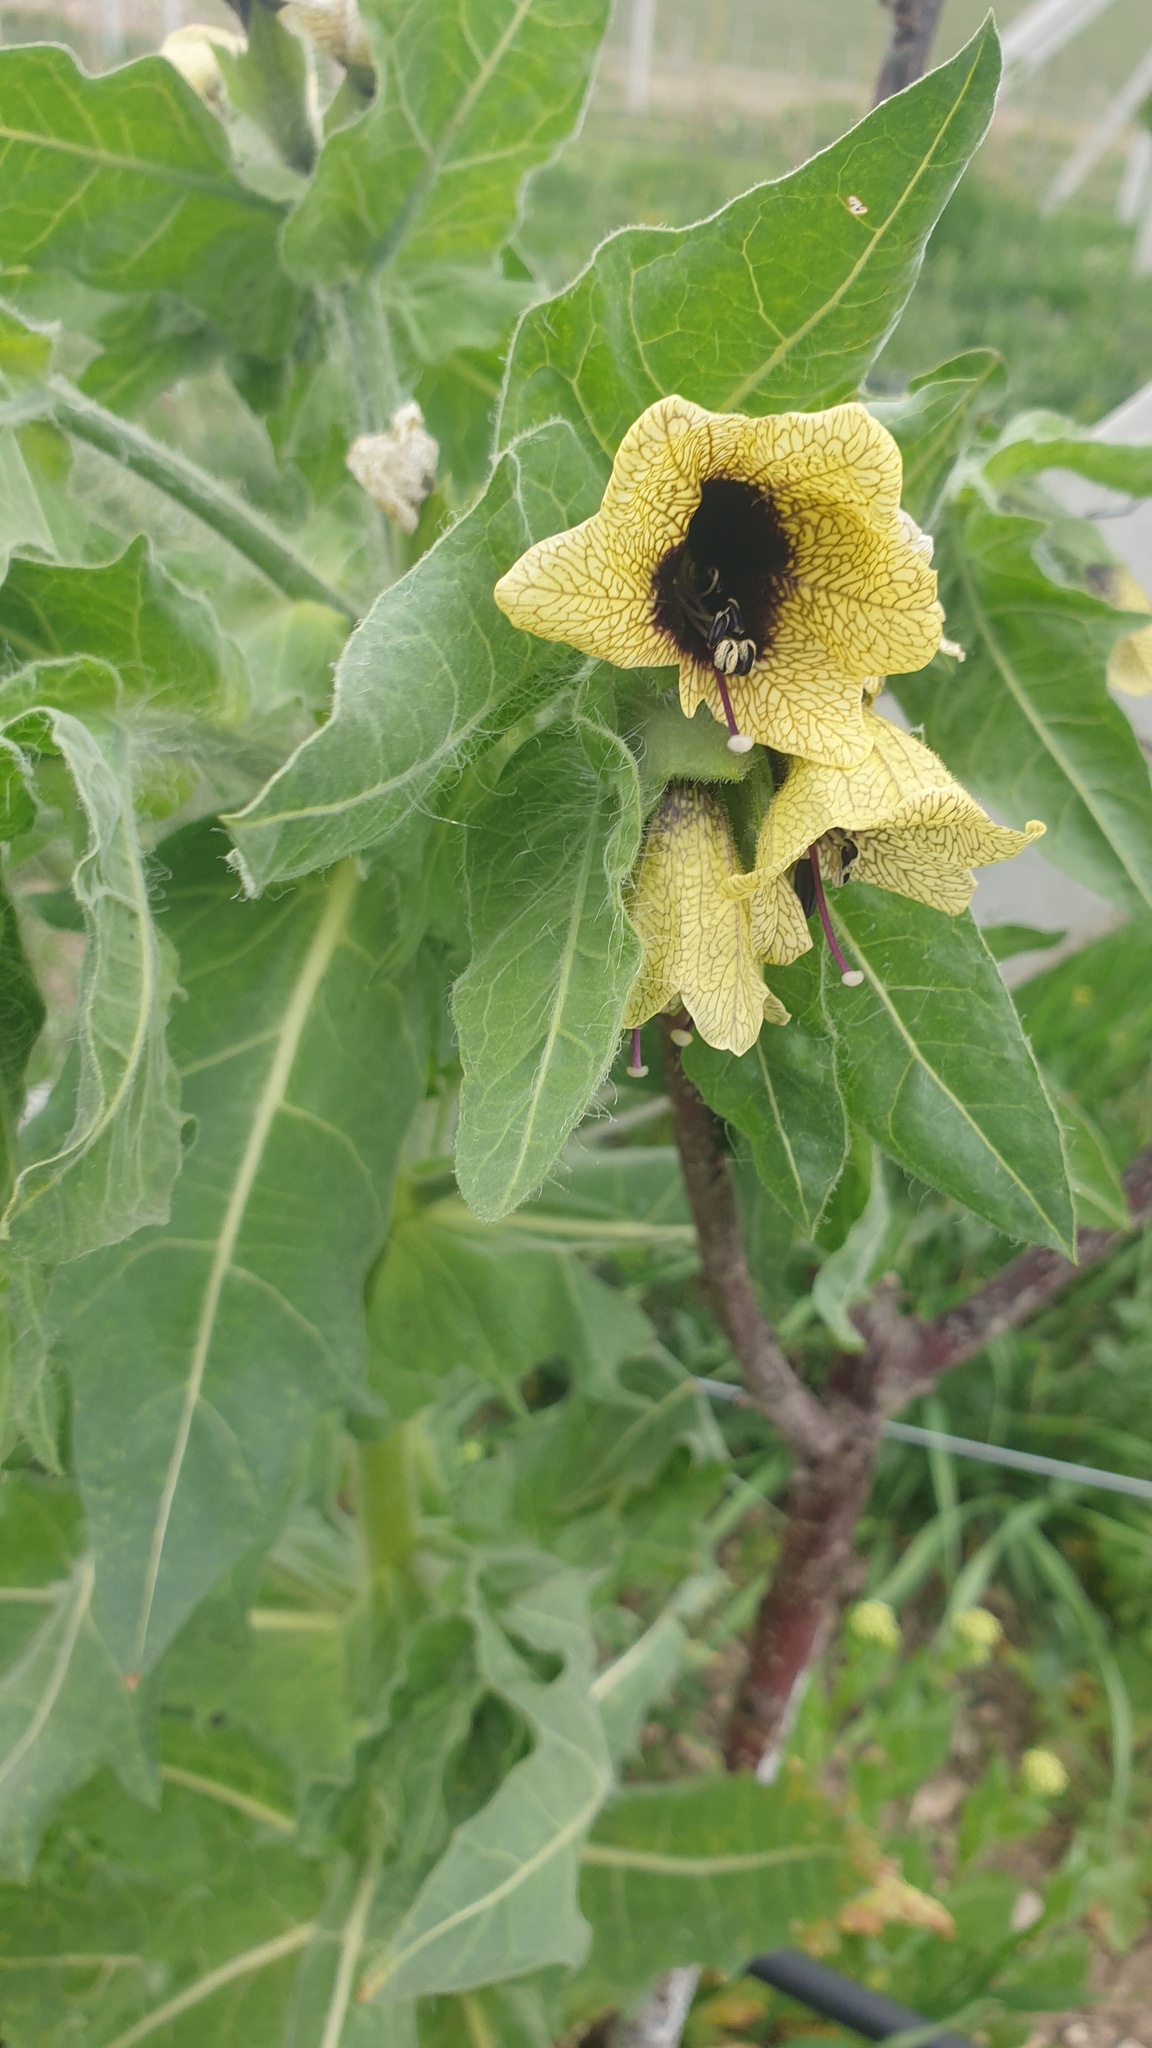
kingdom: Plantae
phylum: Tracheophyta
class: Magnoliopsida
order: Solanales
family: Solanaceae
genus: Hyoscyamus
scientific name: Hyoscyamus niger
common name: Henbane
